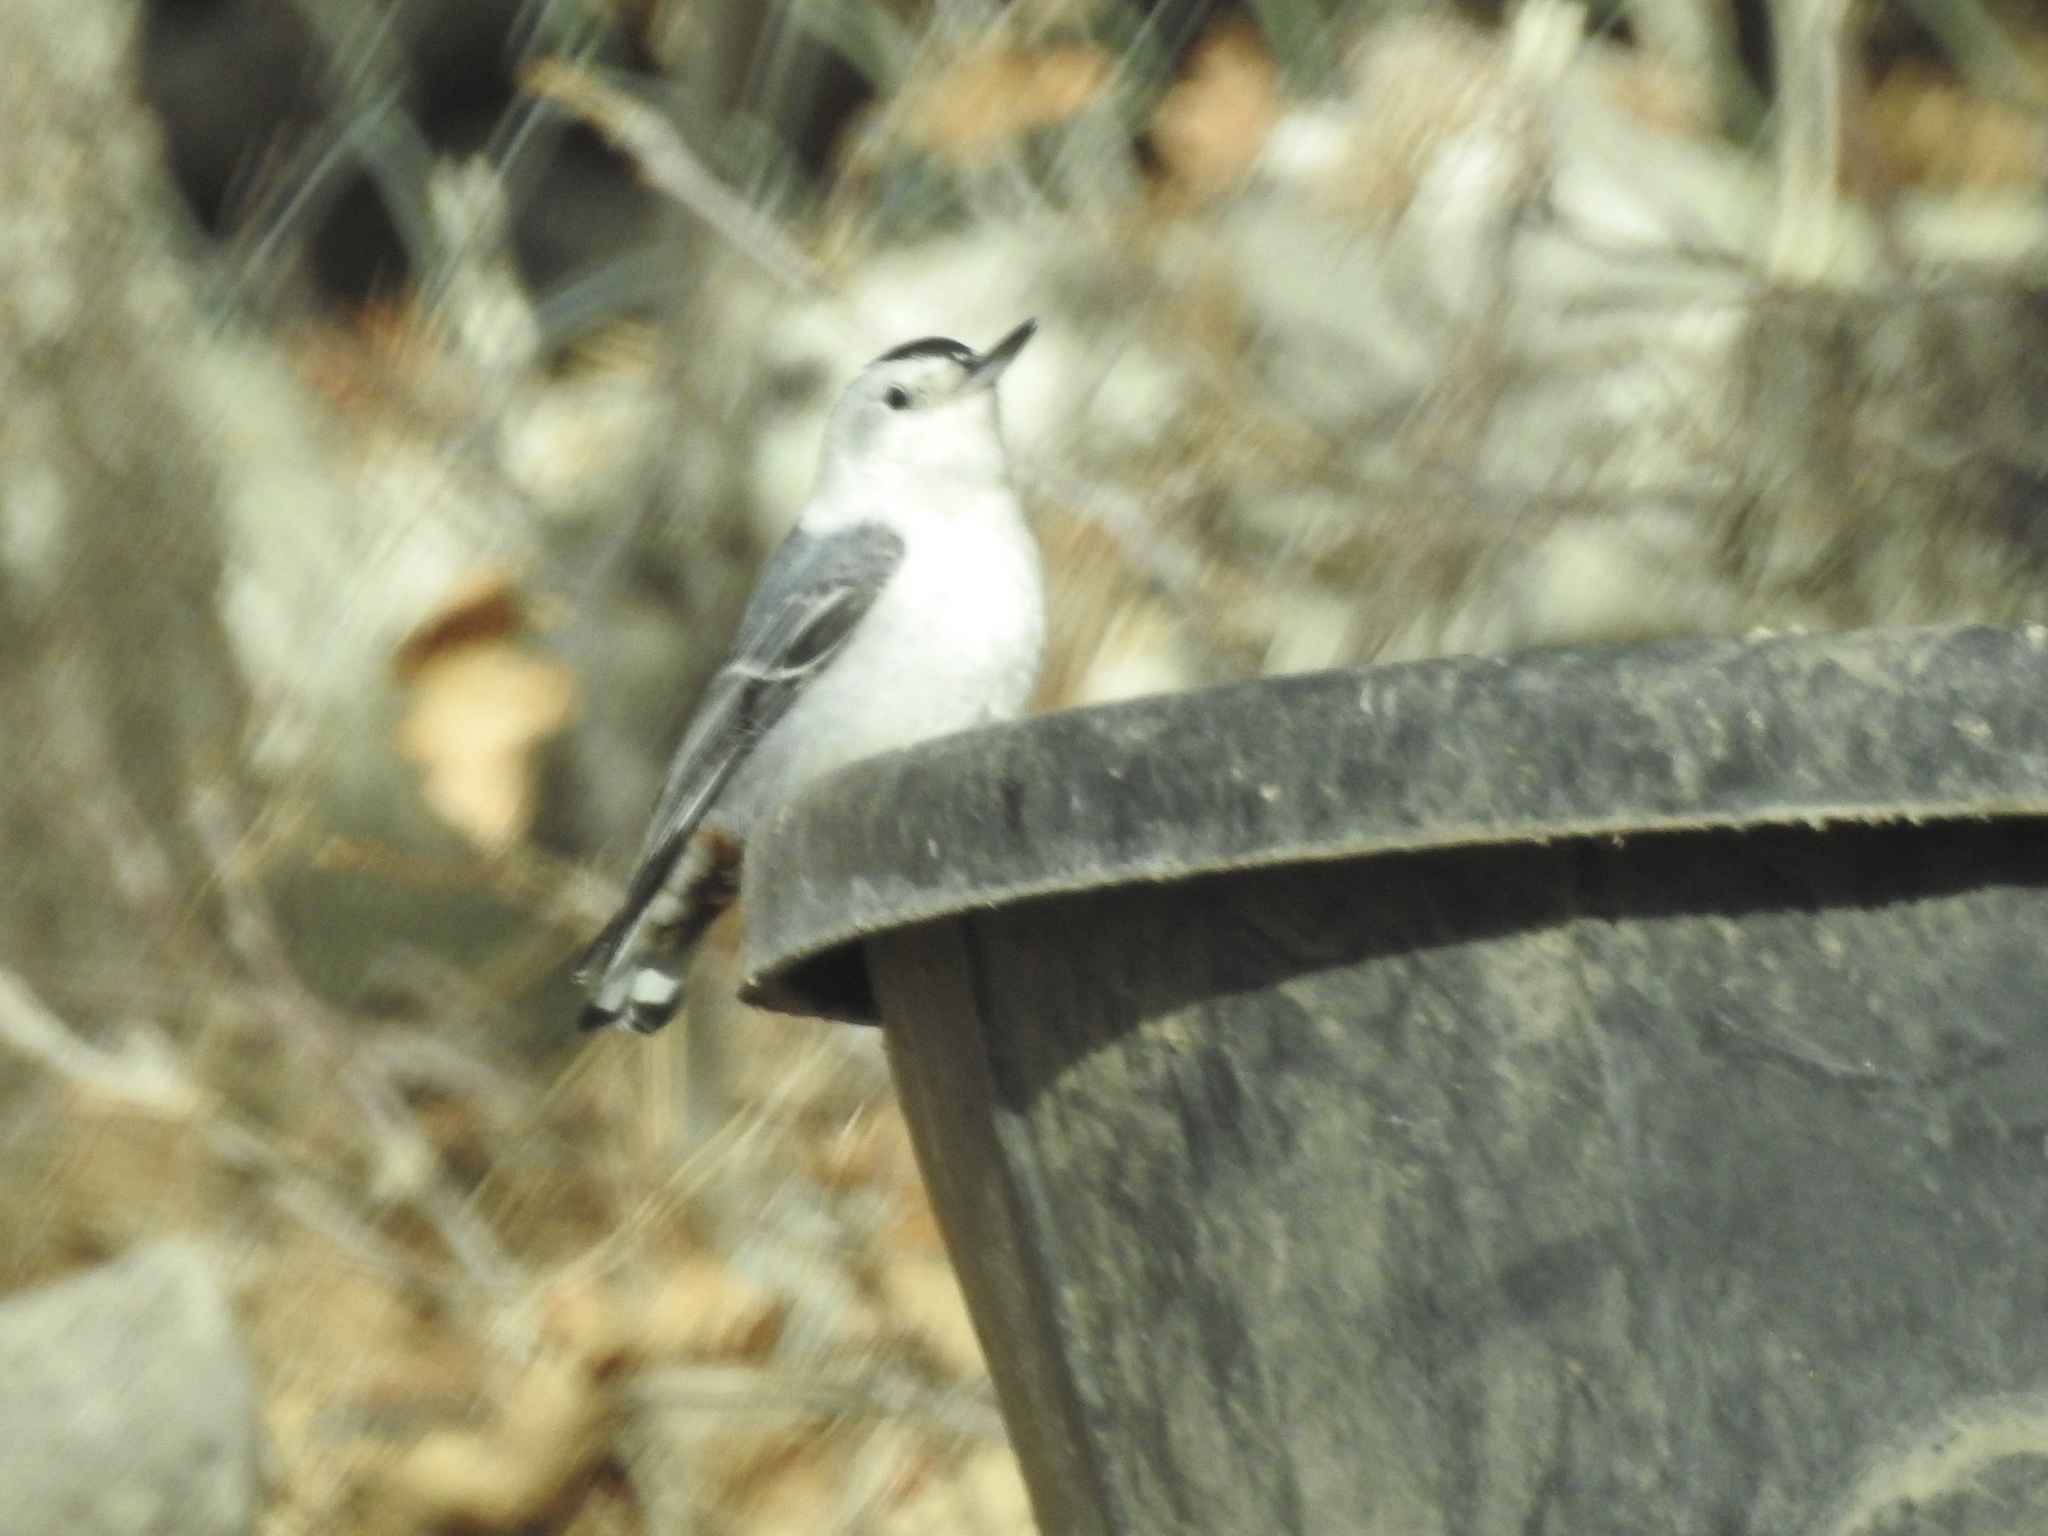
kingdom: Animalia
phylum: Chordata
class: Aves
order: Passeriformes
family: Sittidae
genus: Sitta
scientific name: Sitta carolinensis
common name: White-breasted nuthatch
